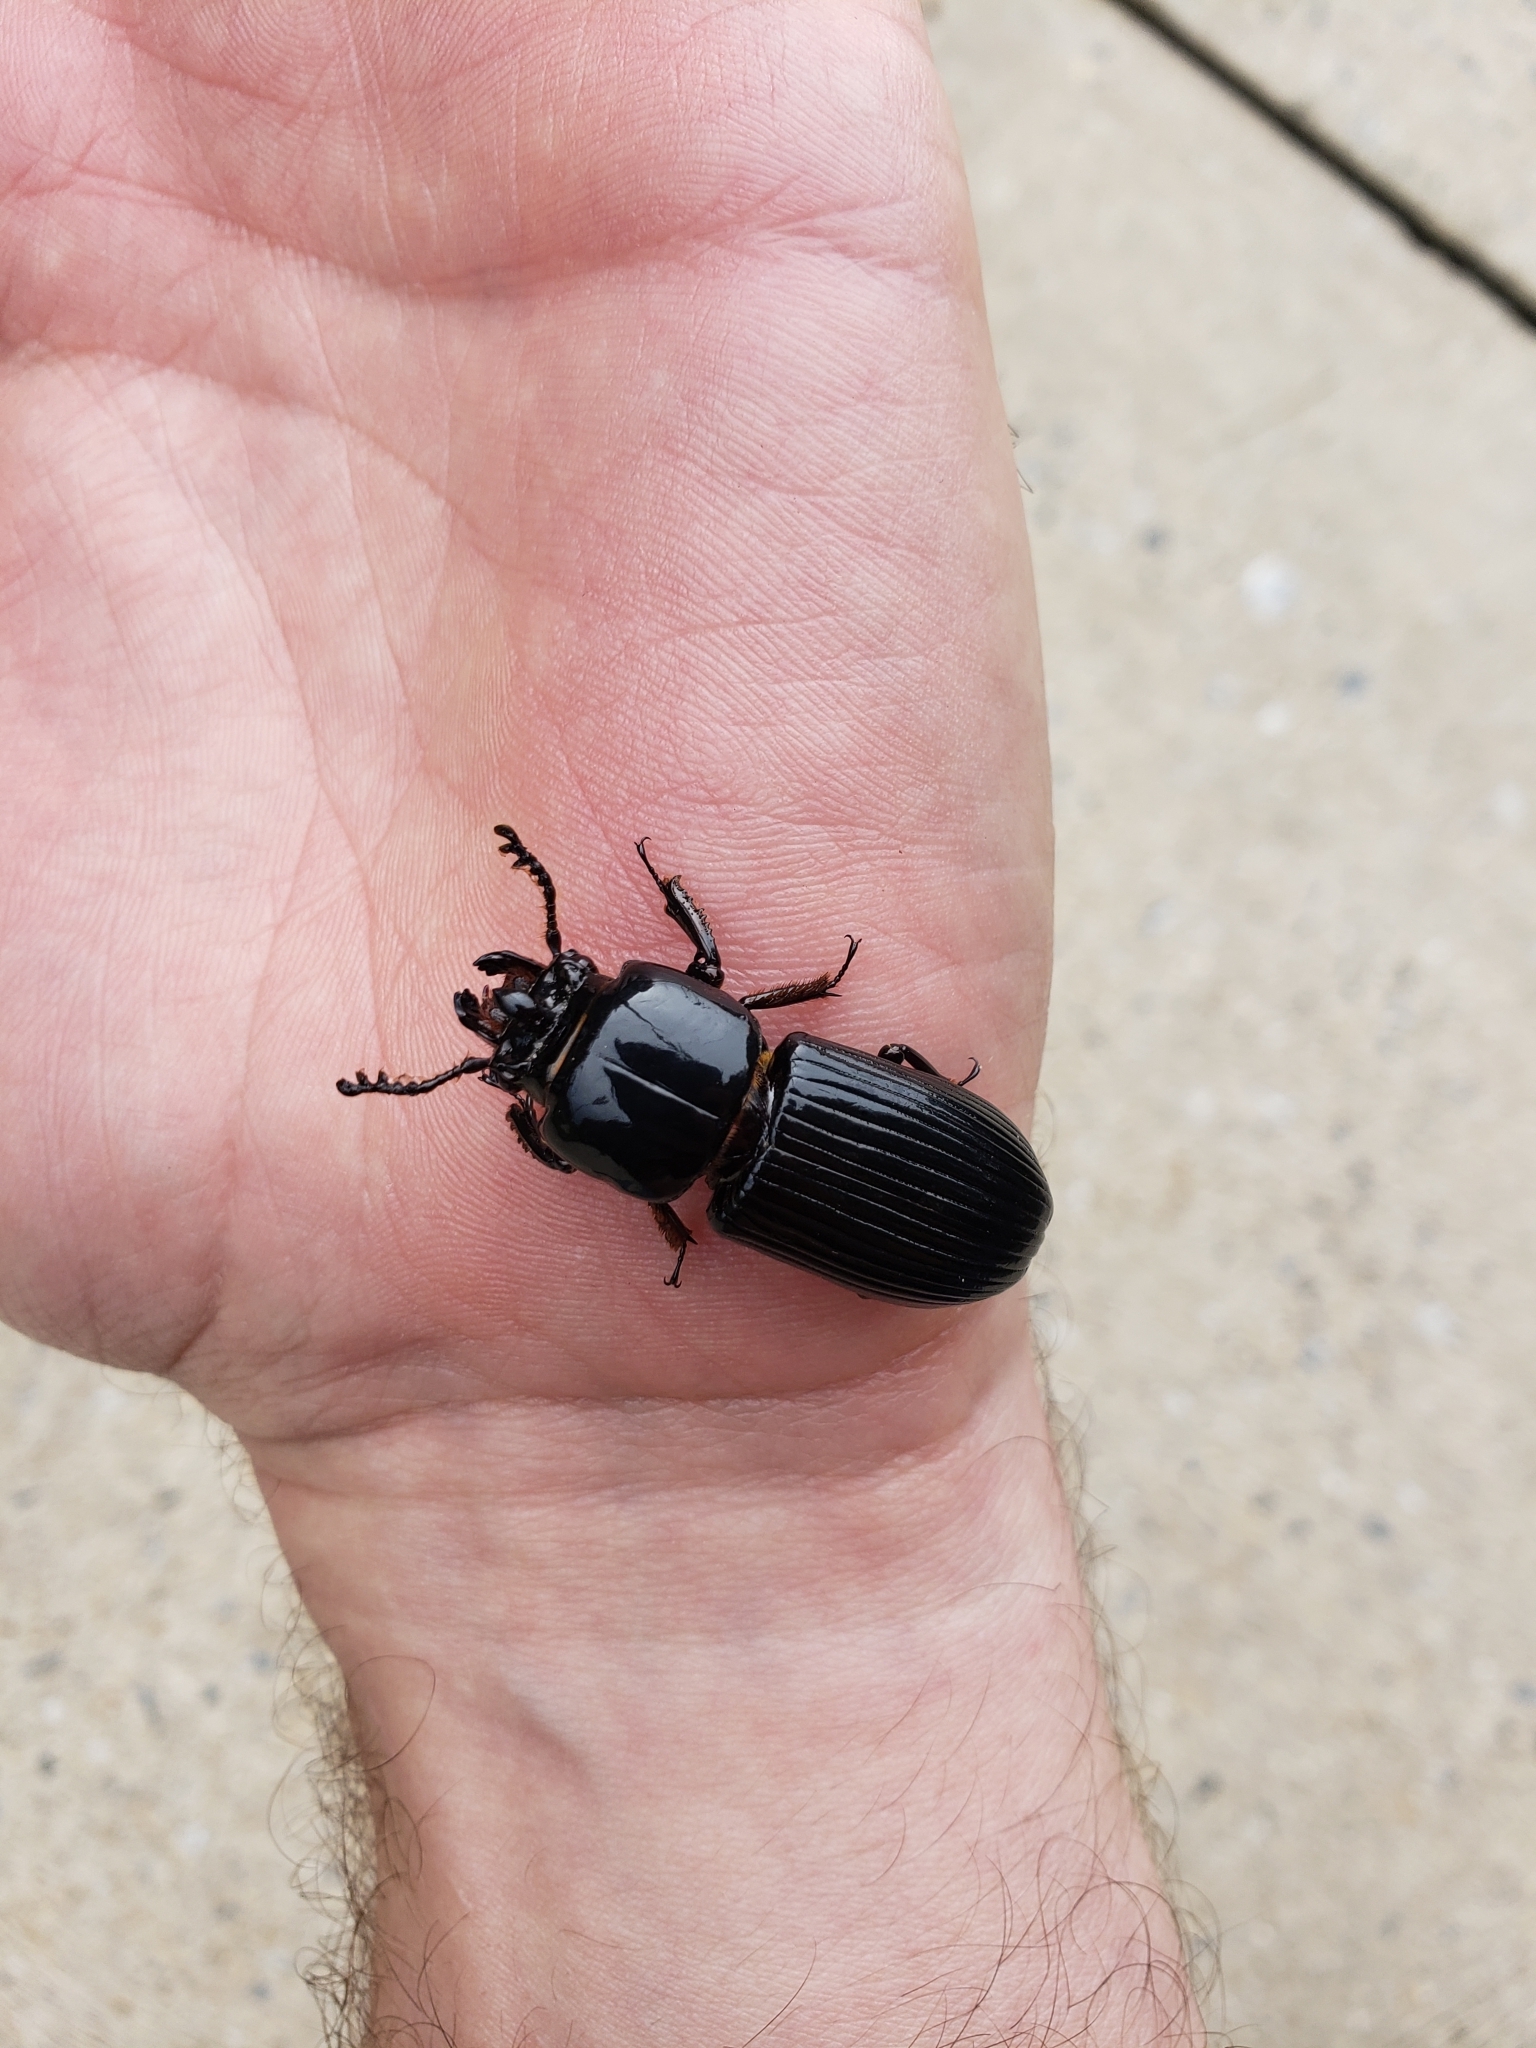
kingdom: Animalia
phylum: Arthropoda
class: Insecta
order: Coleoptera
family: Passalidae
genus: Odontotaenius
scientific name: Odontotaenius disjunctus
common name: Patent leather beetle
